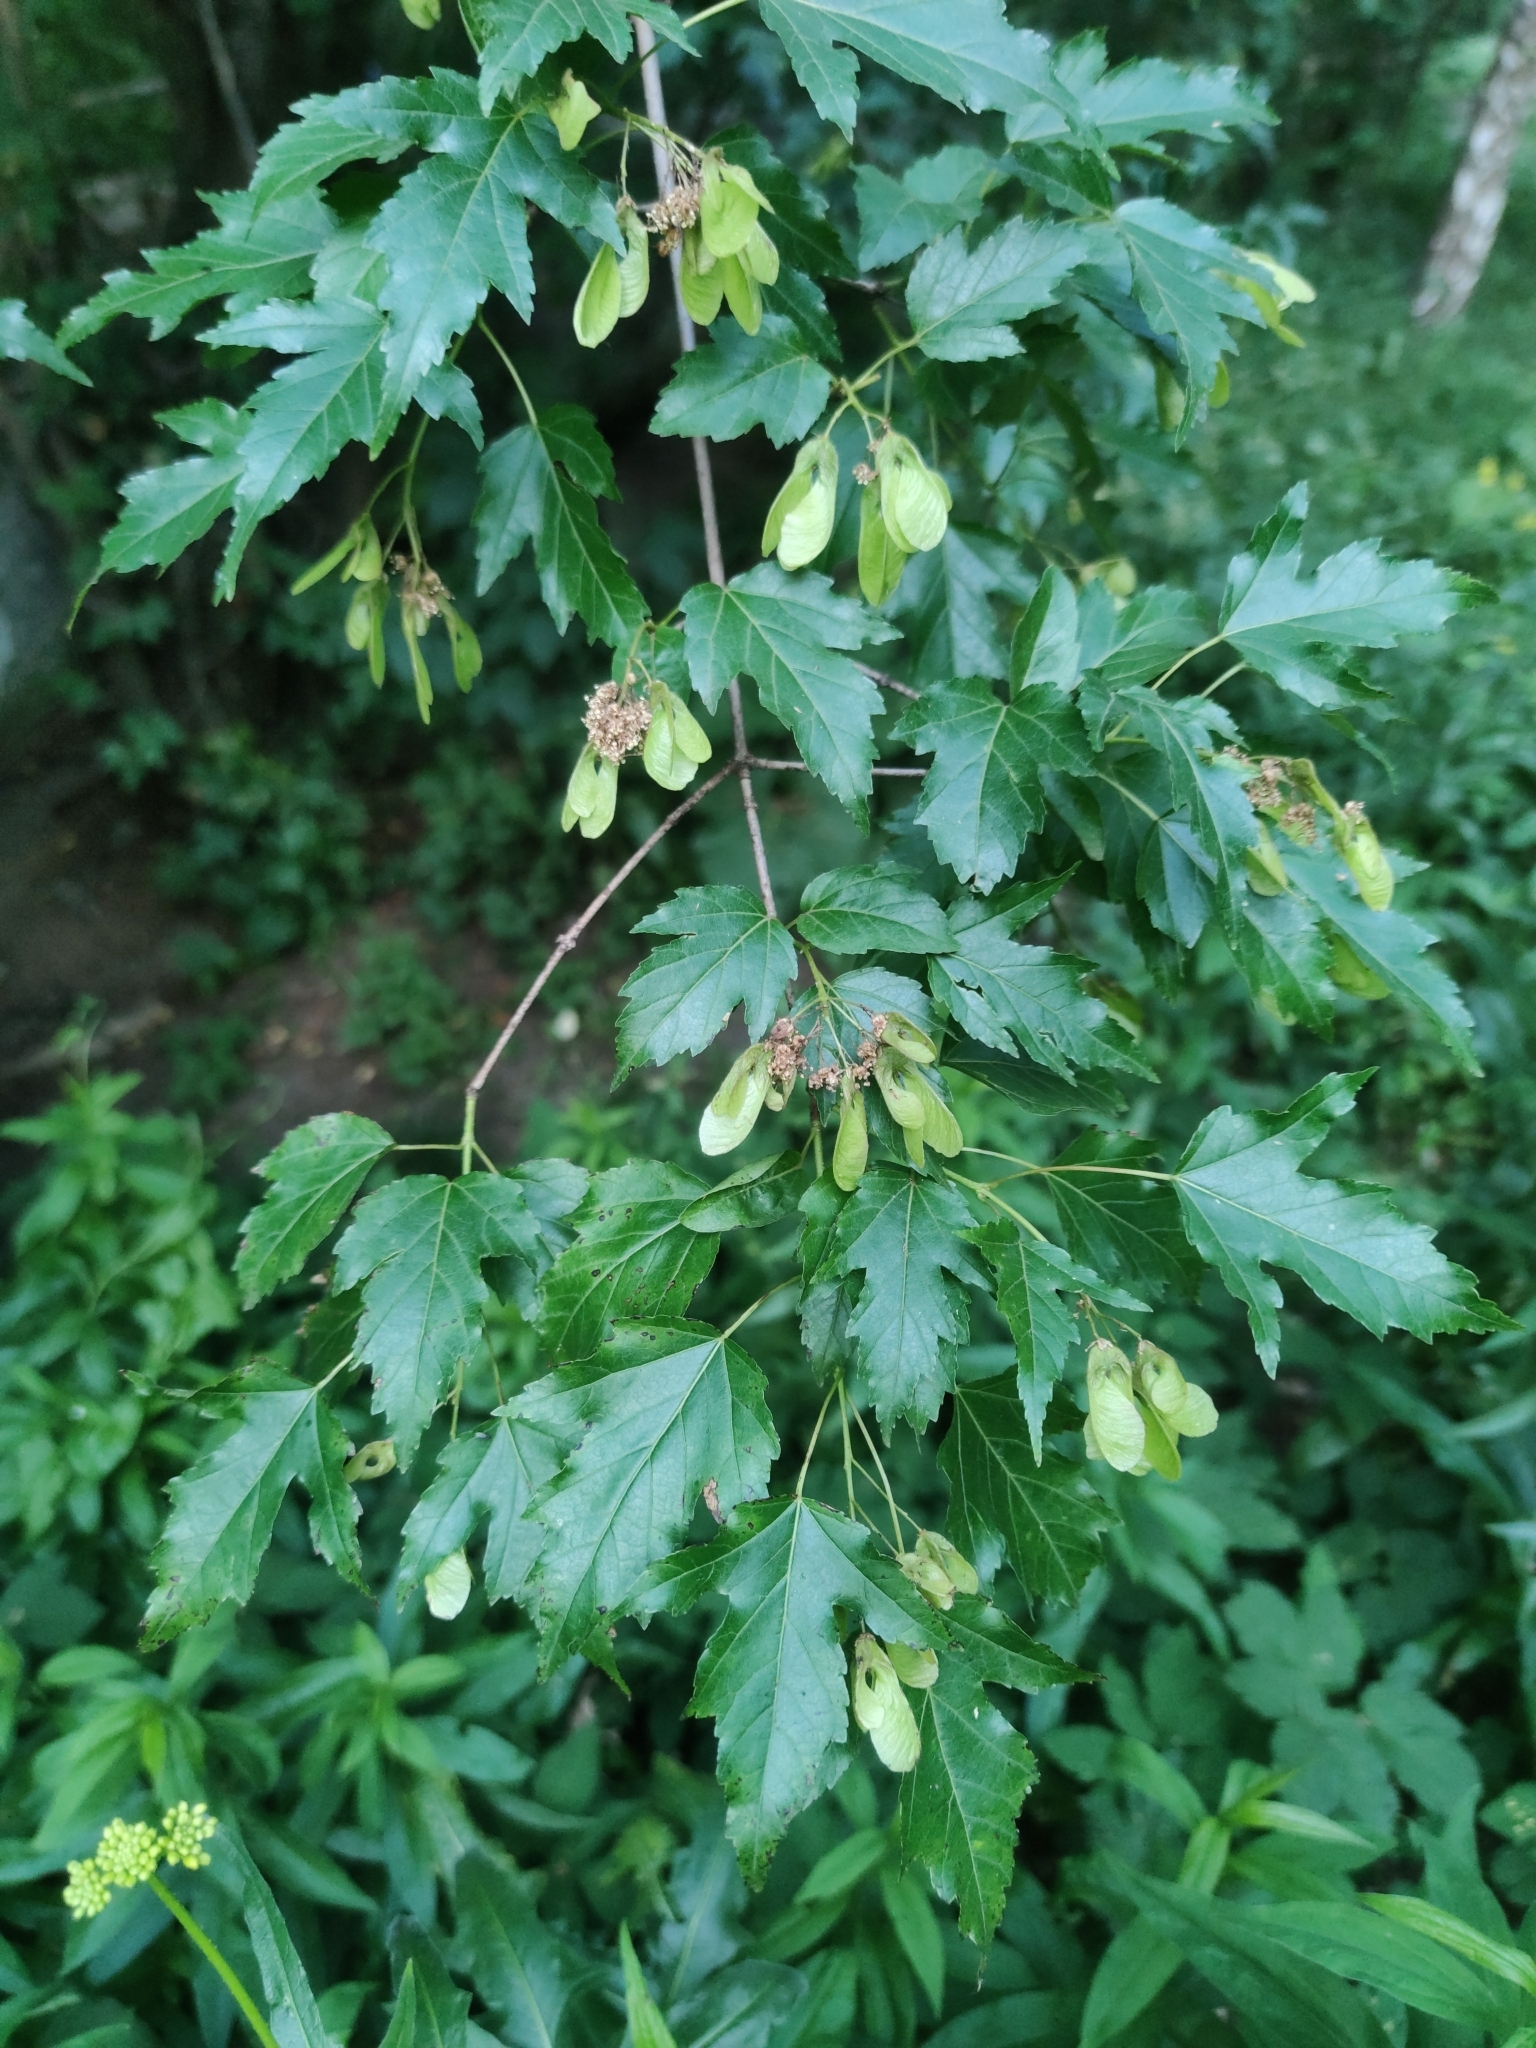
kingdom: Plantae
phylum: Tracheophyta
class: Magnoliopsida
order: Sapindales
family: Sapindaceae
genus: Acer
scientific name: Acer tataricum
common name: Tartar maple
